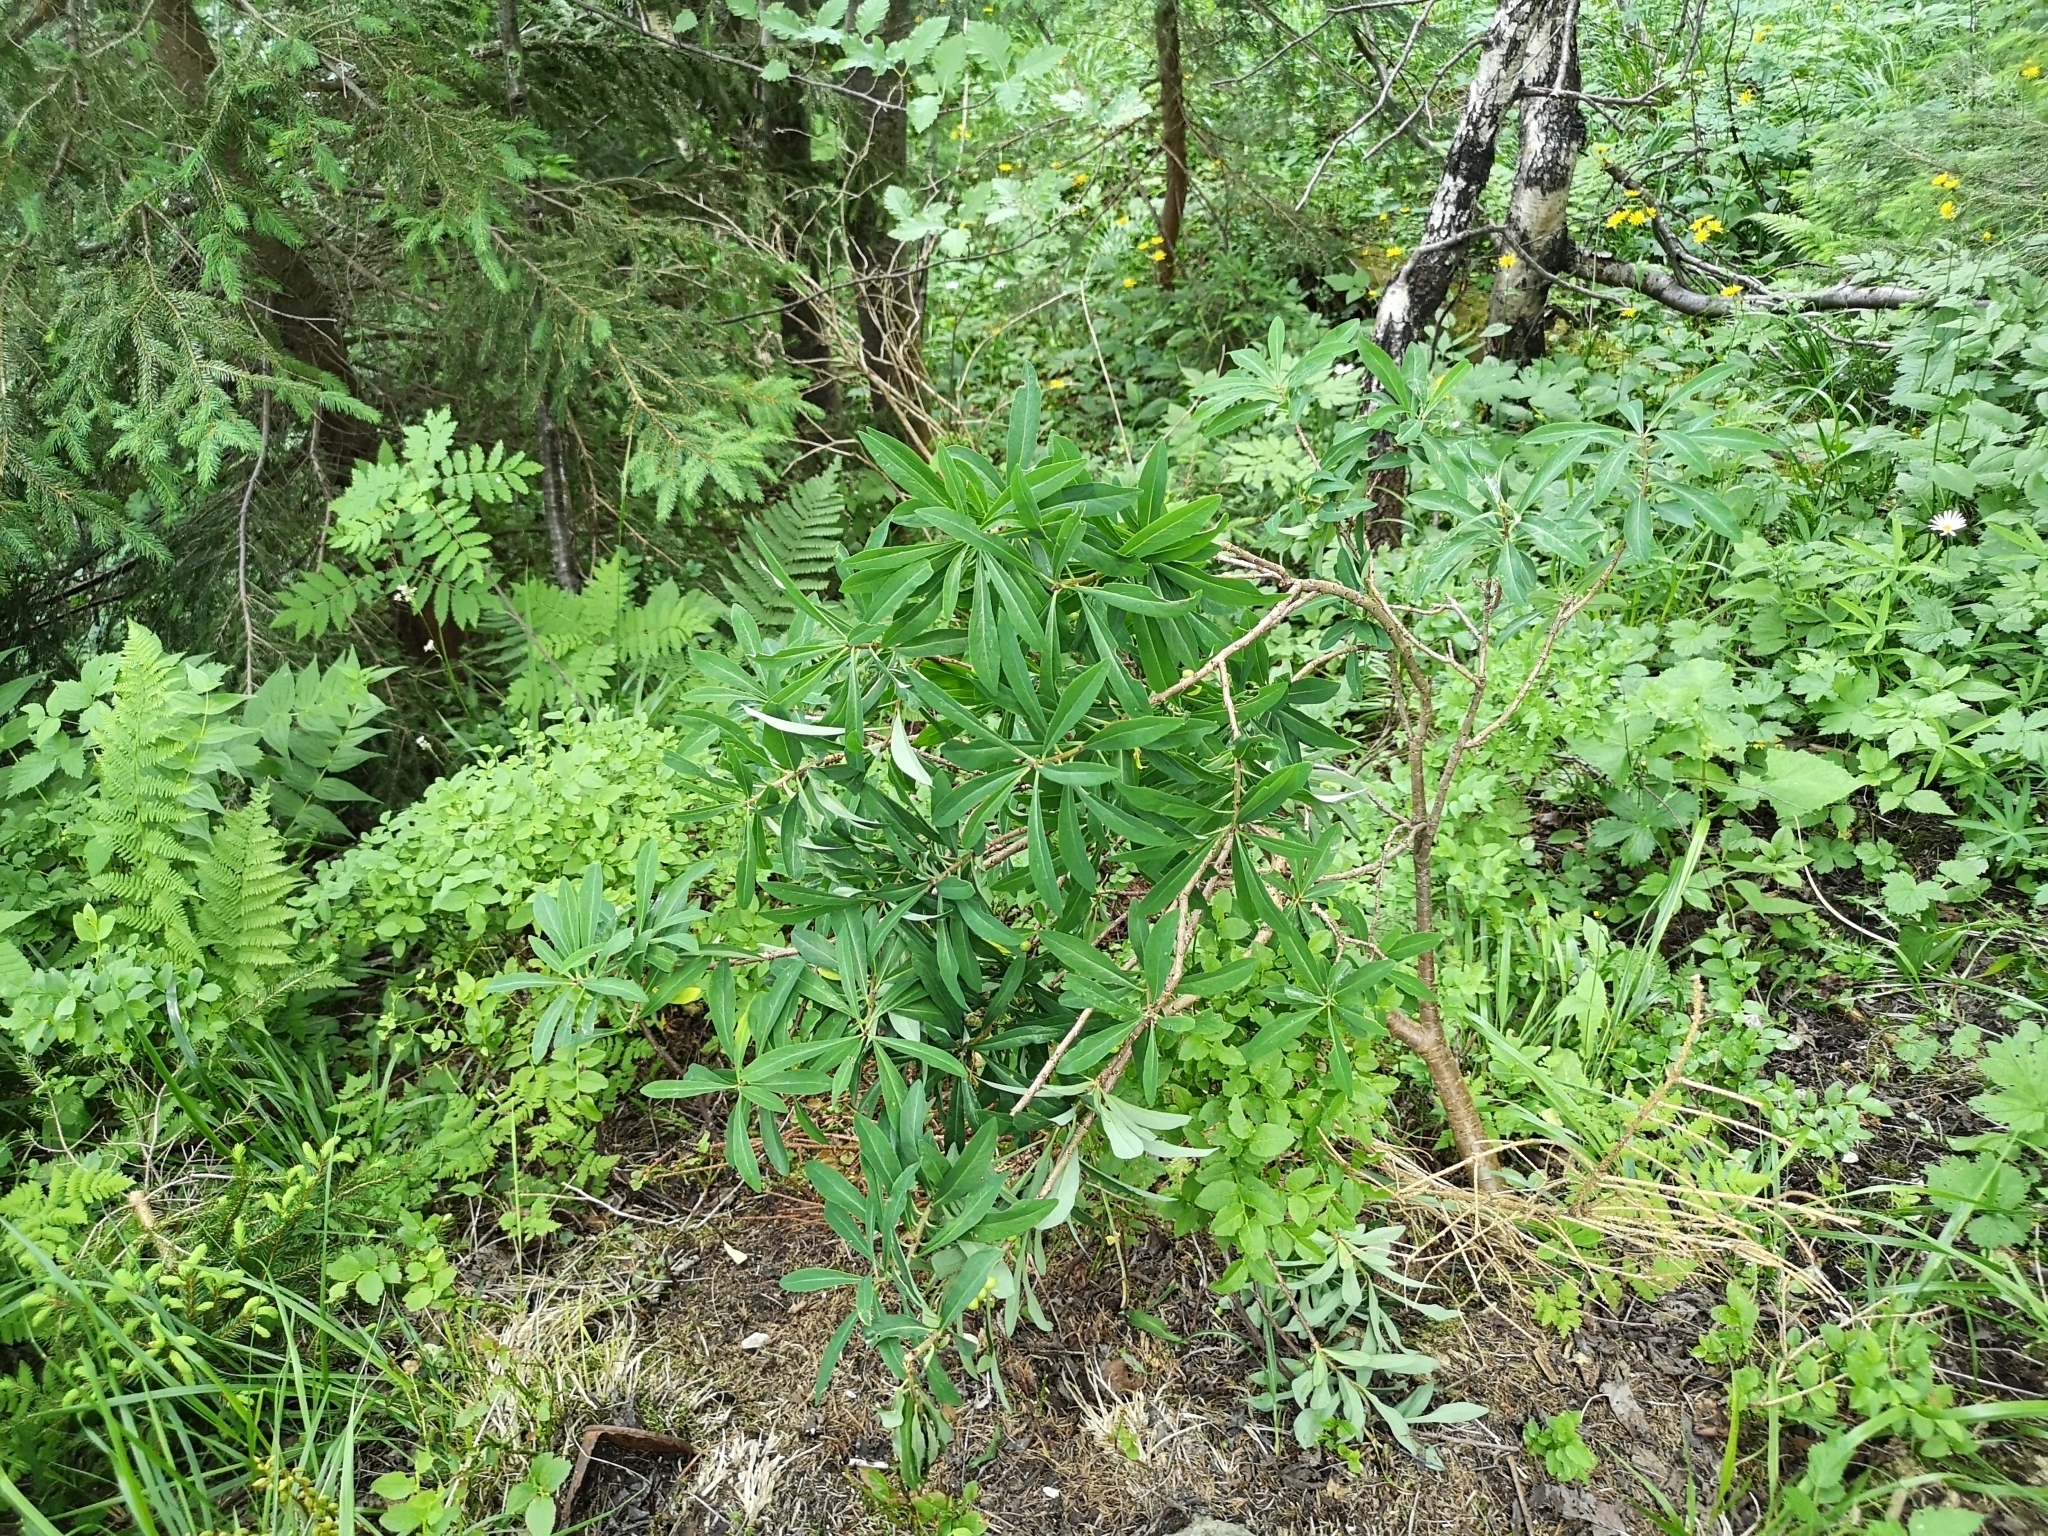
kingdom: Plantae
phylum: Tracheophyta
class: Magnoliopsida
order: Malvales
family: Thymelaeaceae
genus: Daphne
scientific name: Daphne mezereum
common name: Mezereon
